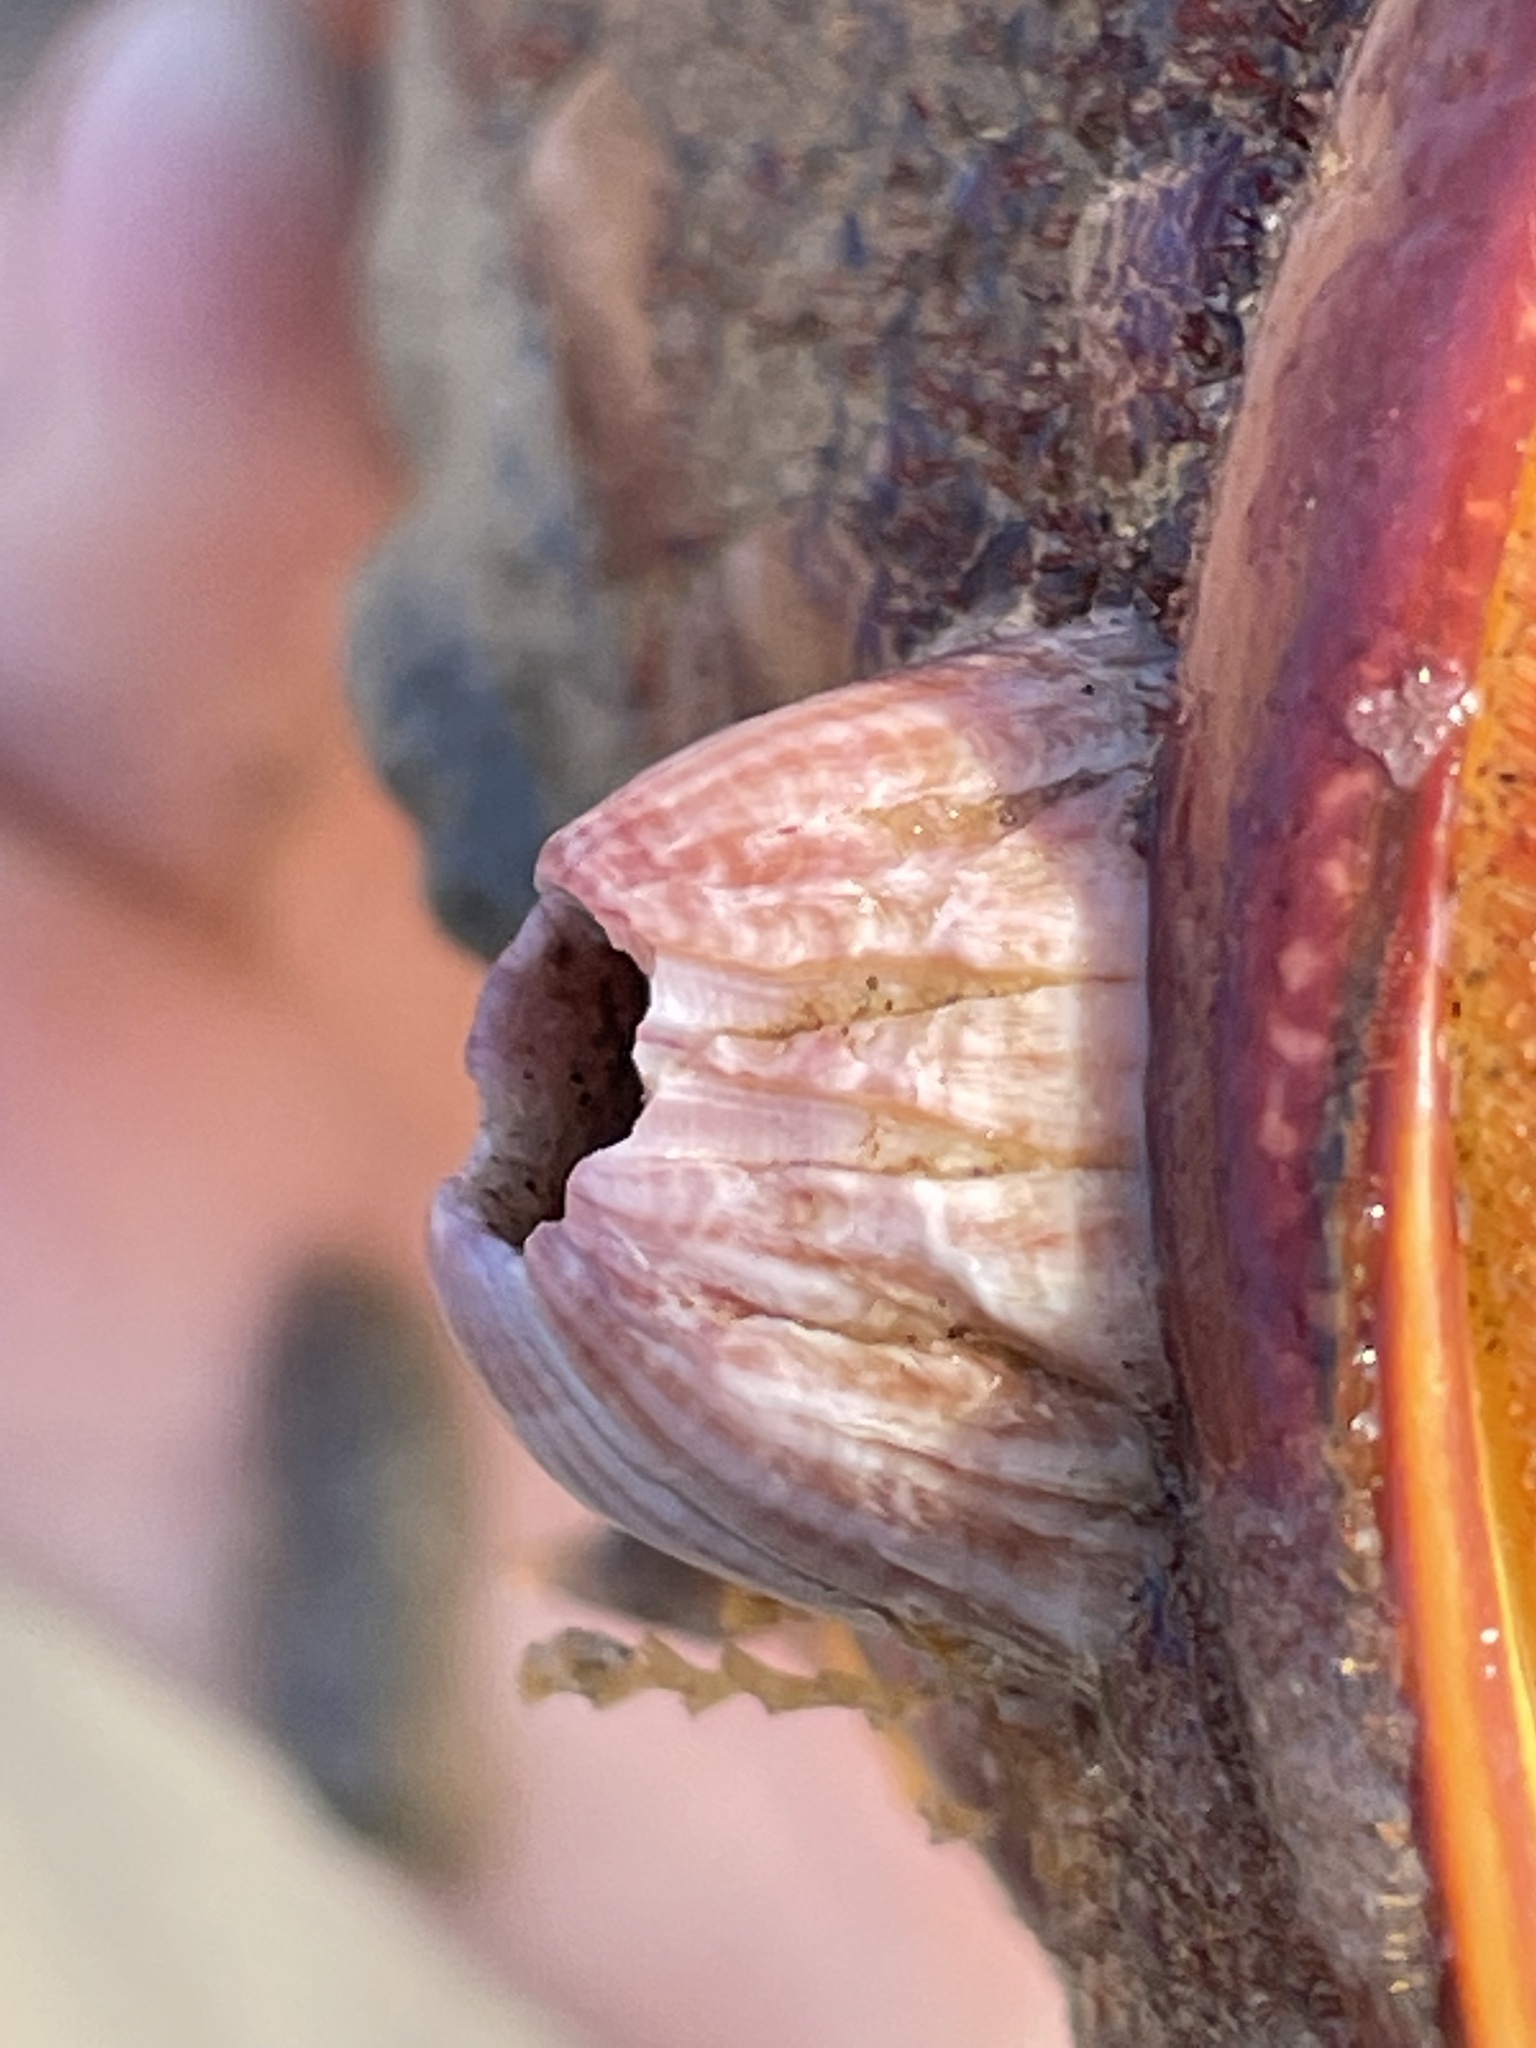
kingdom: Animalia
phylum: Arthropoda
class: Maxillopoda
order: Sessilia
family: Balanidae
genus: Paraconcavus
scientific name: Paraconcavus pacificus
